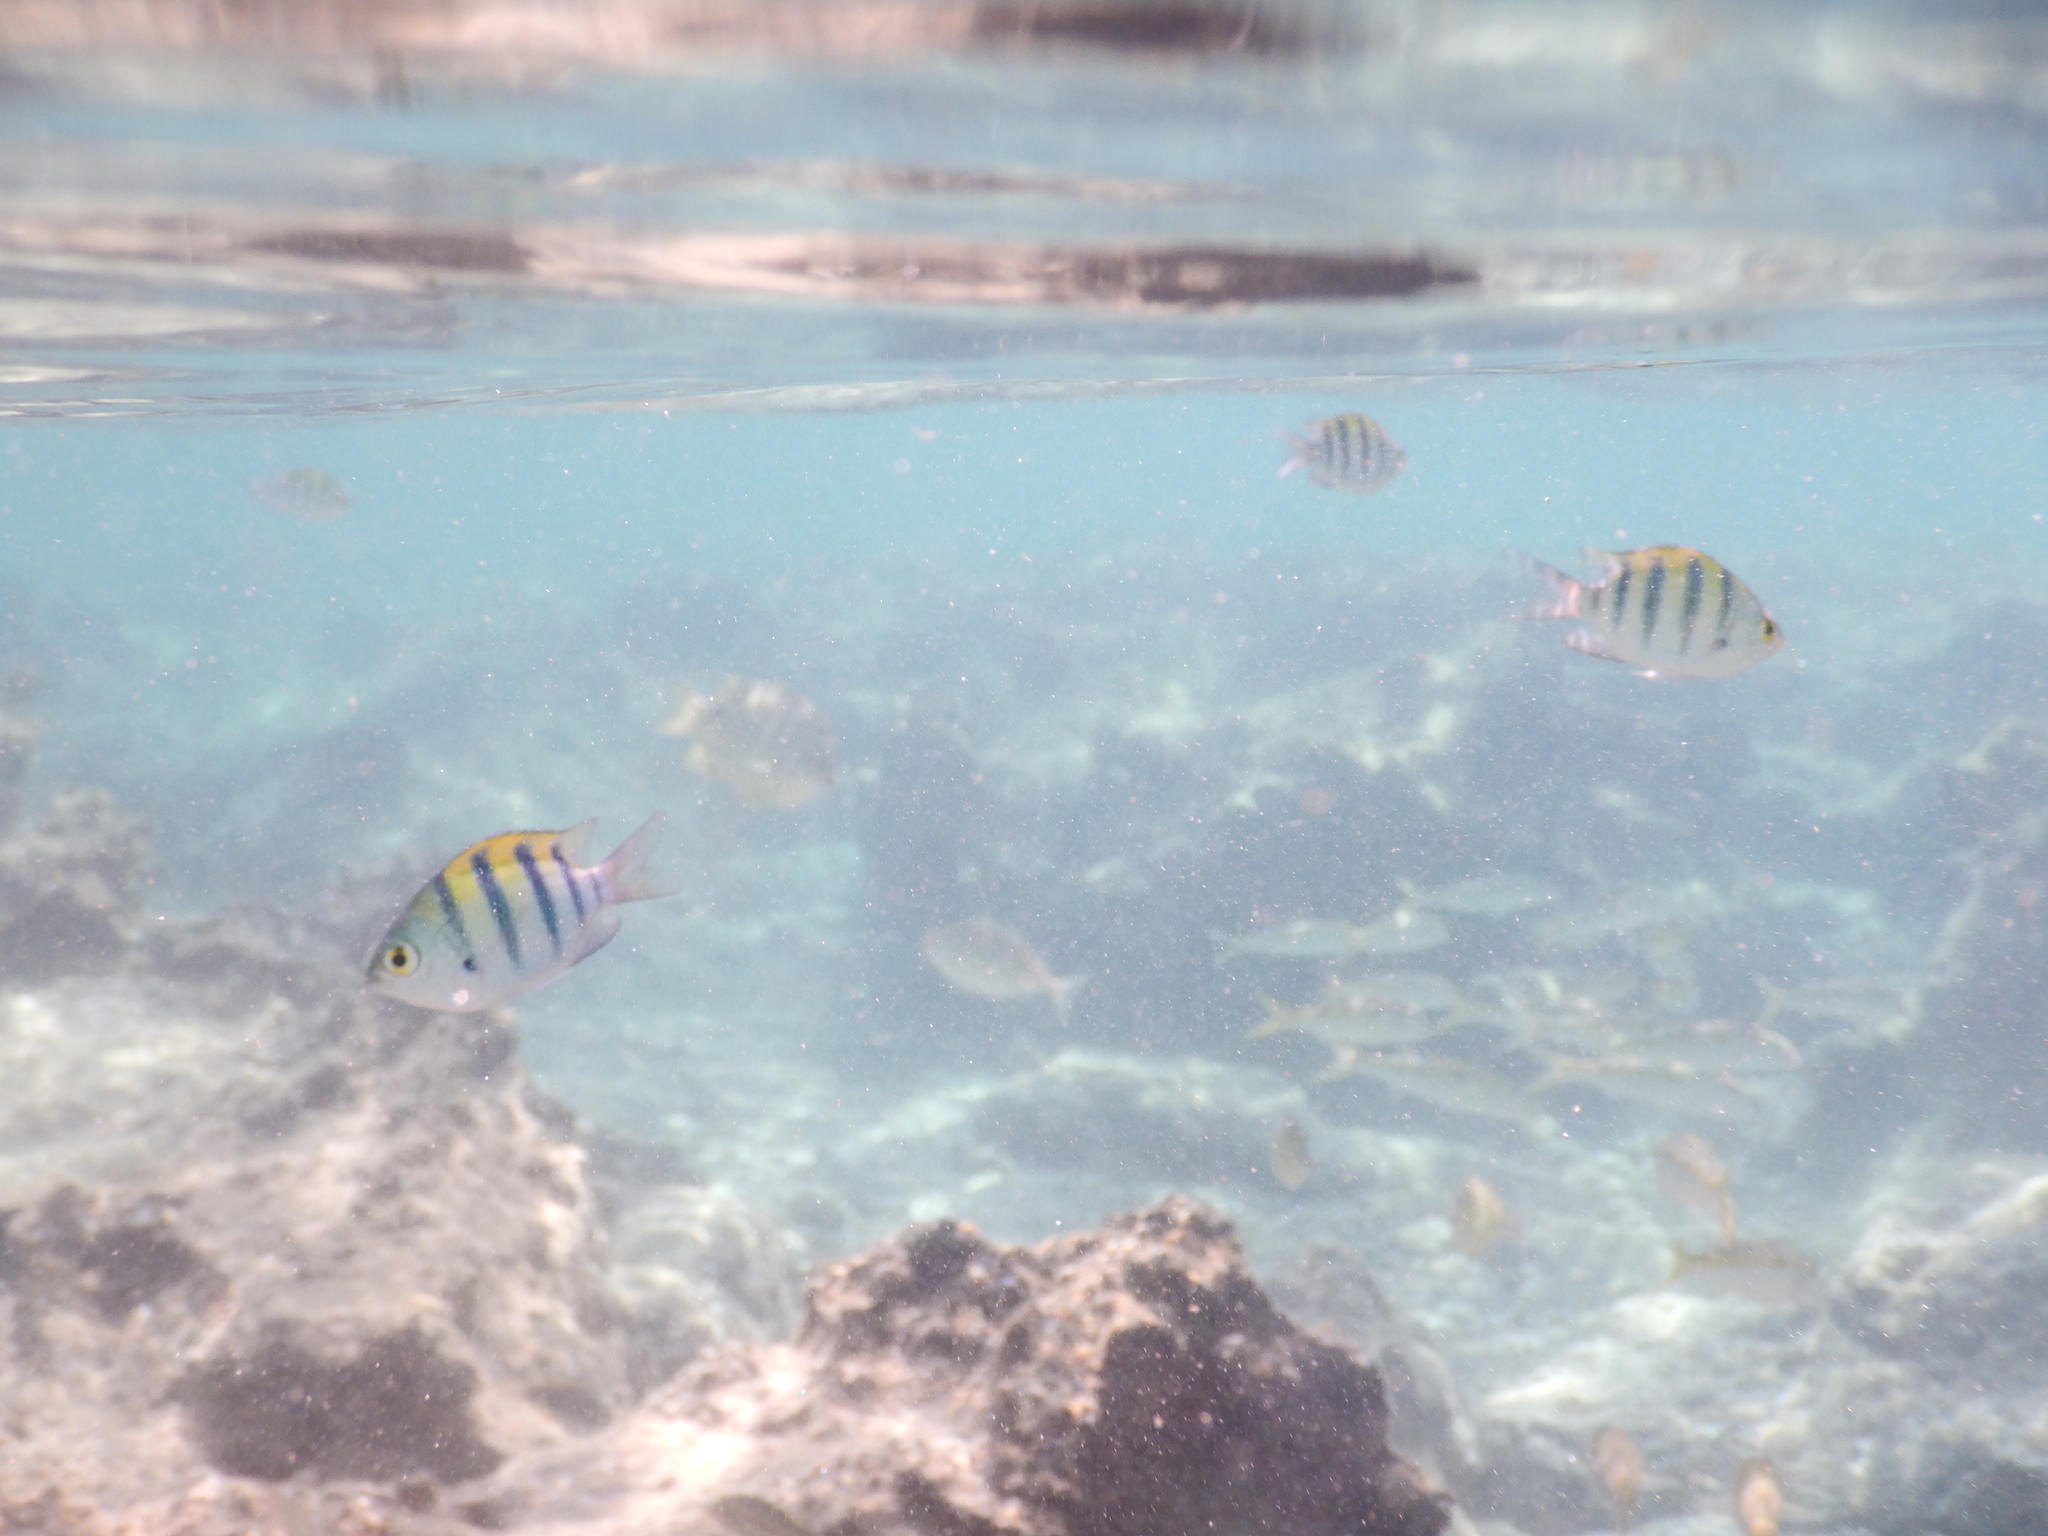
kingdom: Animalia
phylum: Chordata
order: Perciformes
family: Pomacentridae
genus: Abudefduf
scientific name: Abudefduf vaigiensis
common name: Indo-pacific sergeant
